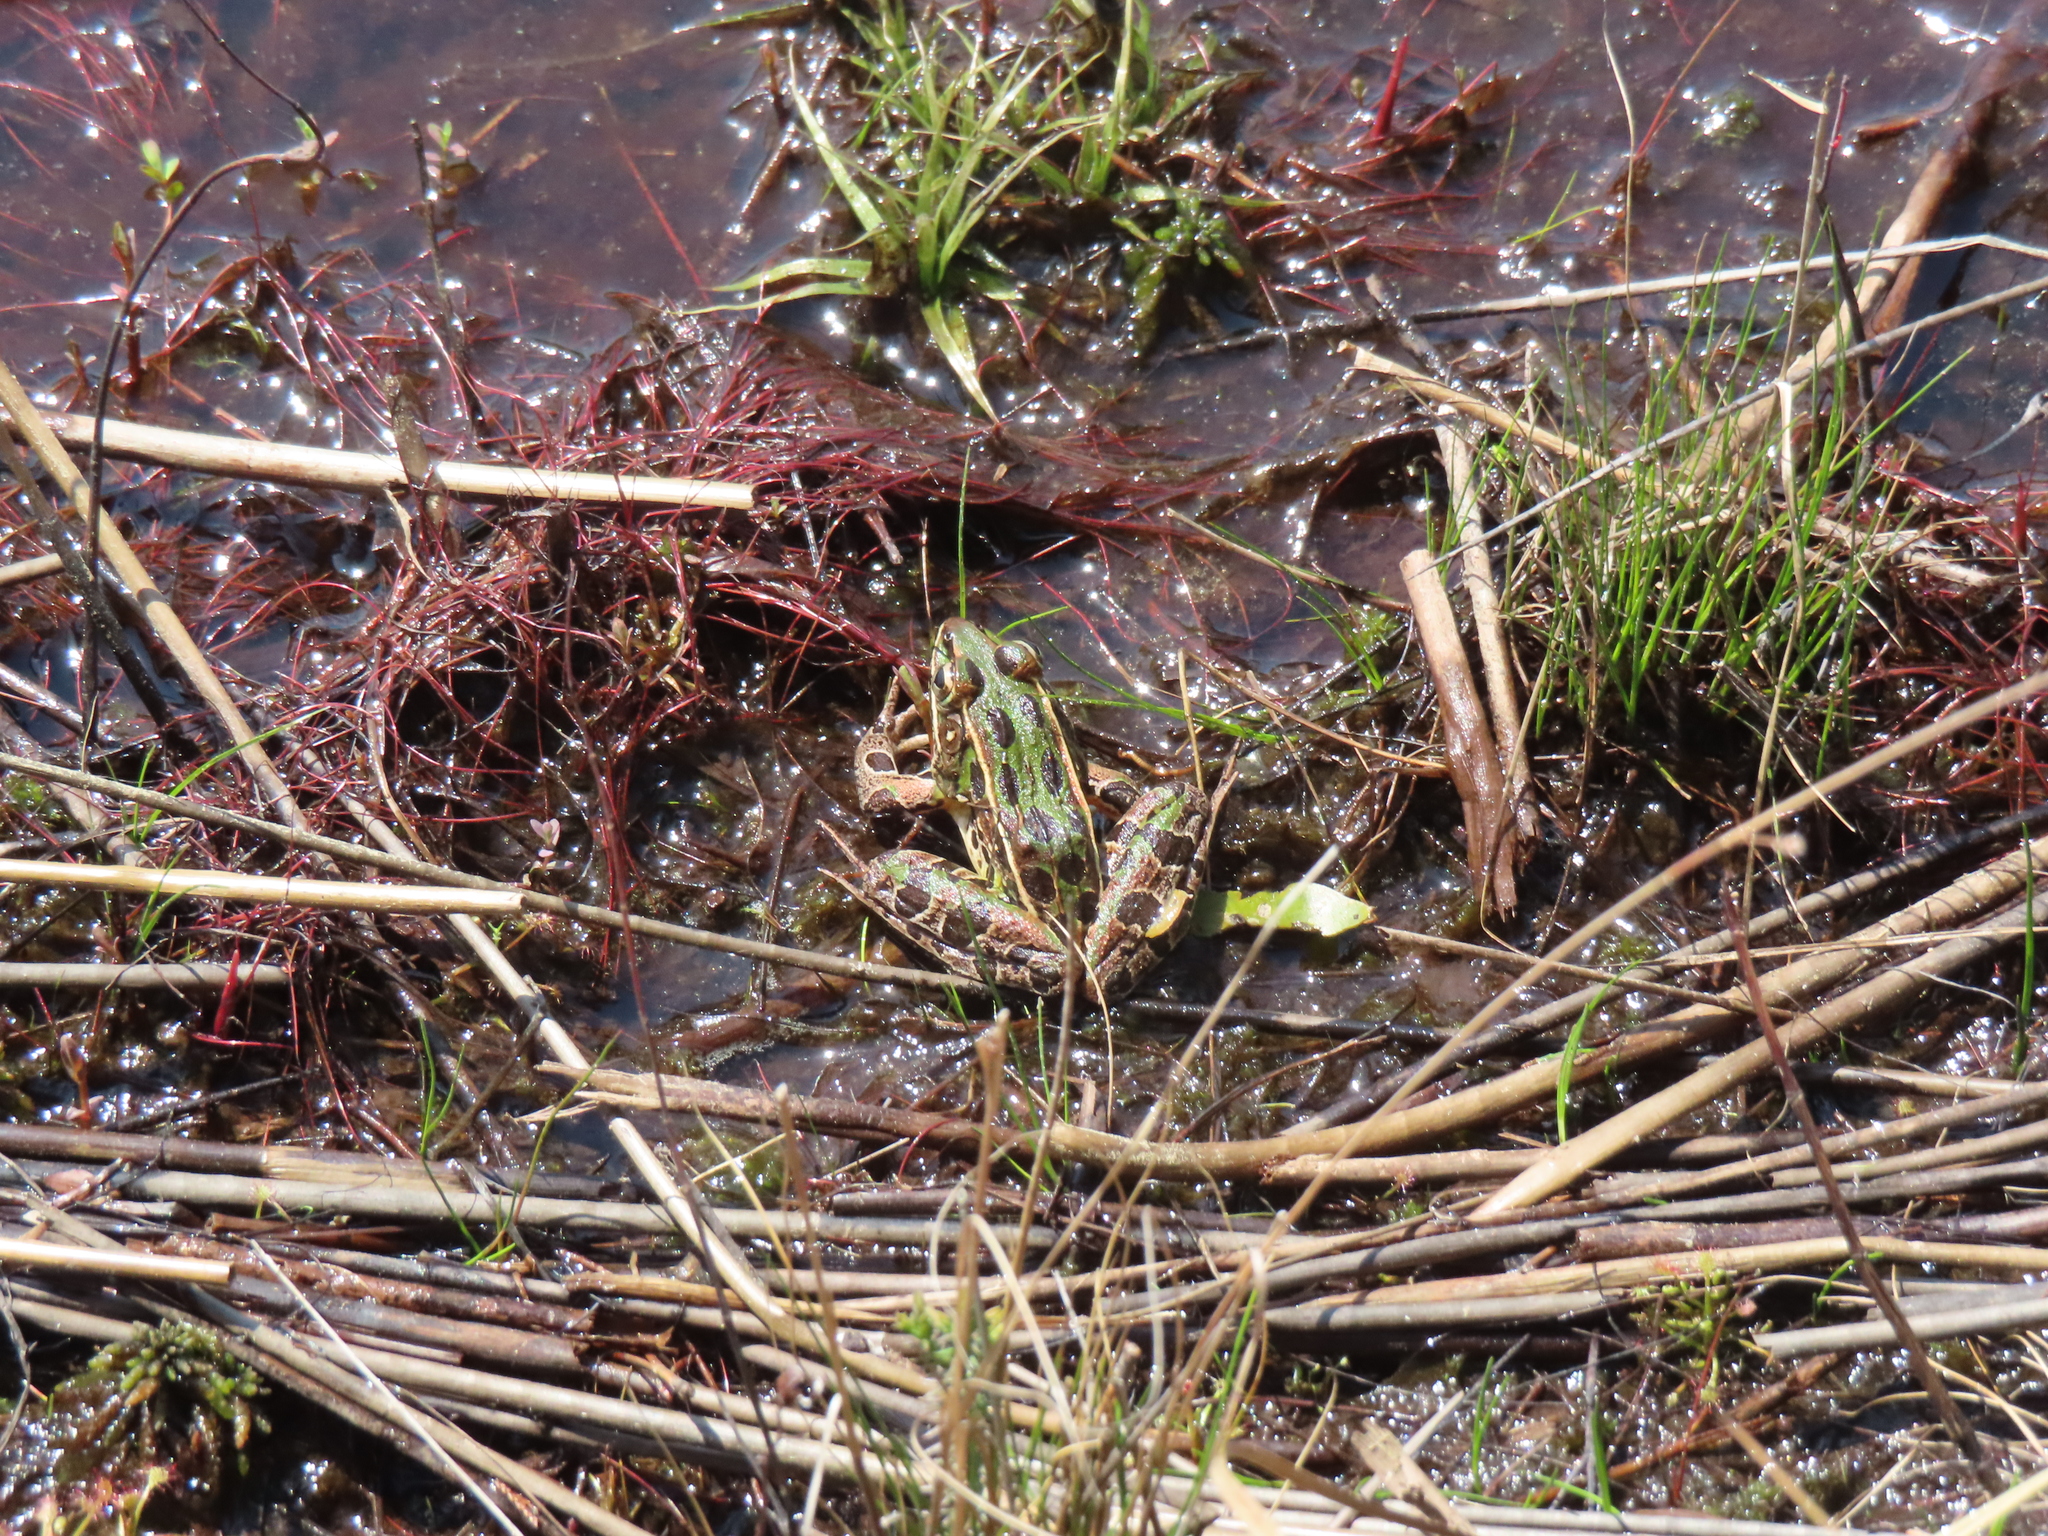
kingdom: Animalia
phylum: Chordata
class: Amphibia
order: Anura
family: Ranidae
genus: Lithobates
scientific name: Lithobates sphenocephalus
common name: Southern leopard frog
